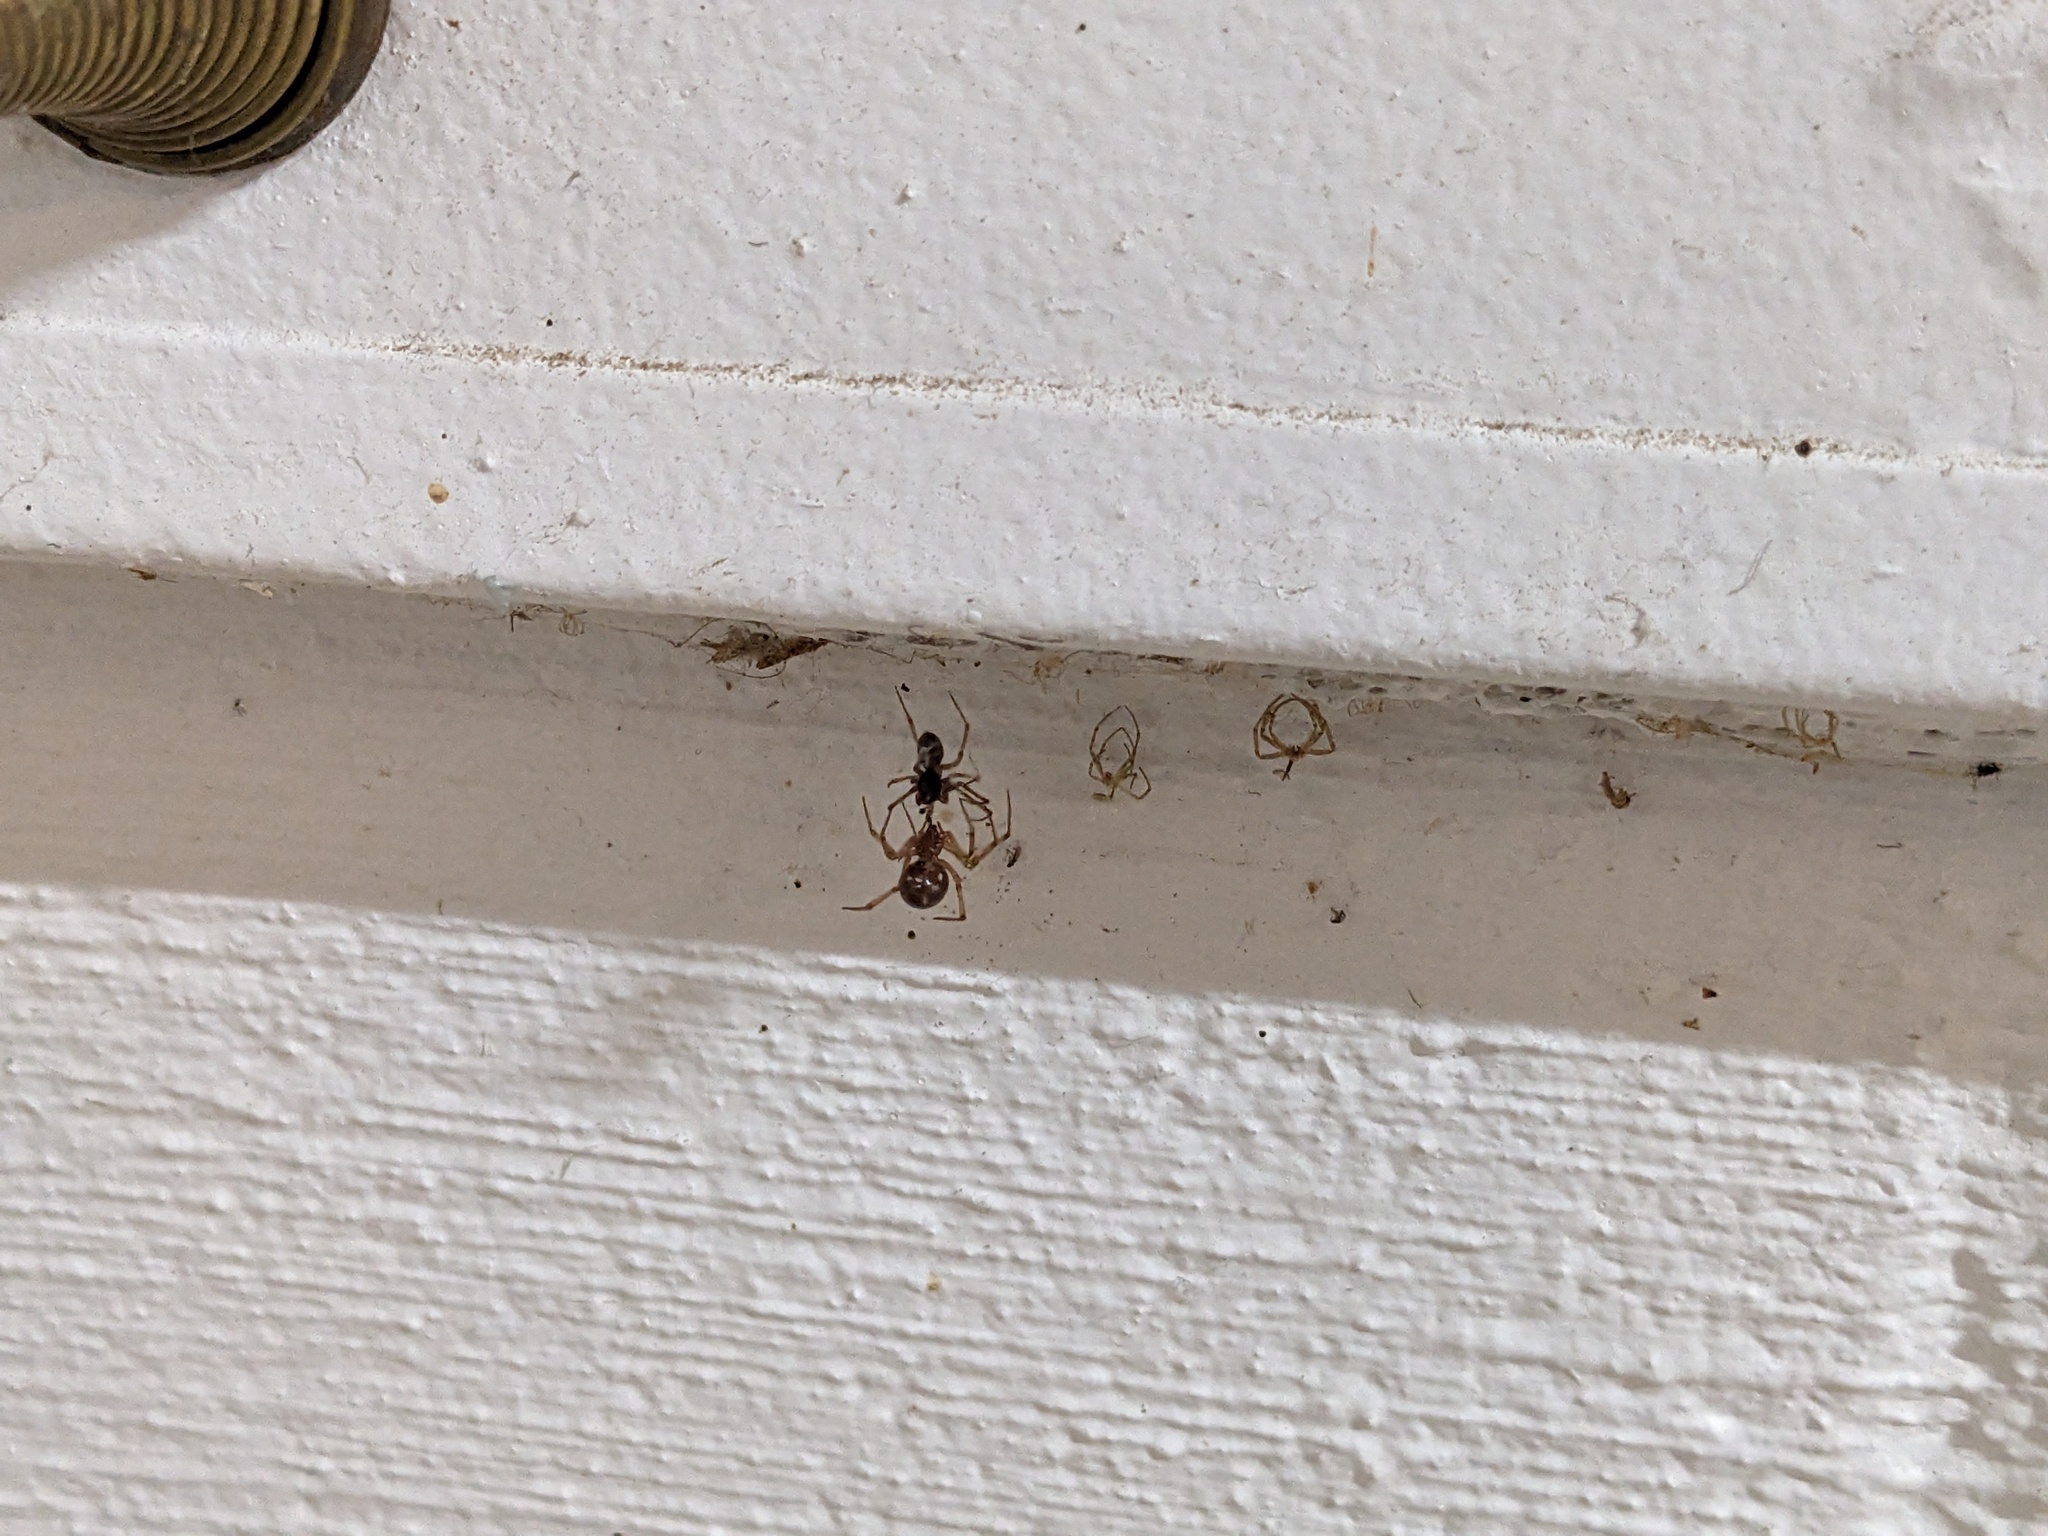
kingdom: Animalia
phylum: Arthropoda
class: Arachnida
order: Araneae
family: Theridiidae
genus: Steatoda
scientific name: Steatoda triangulosa
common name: Triangulate bud spider
